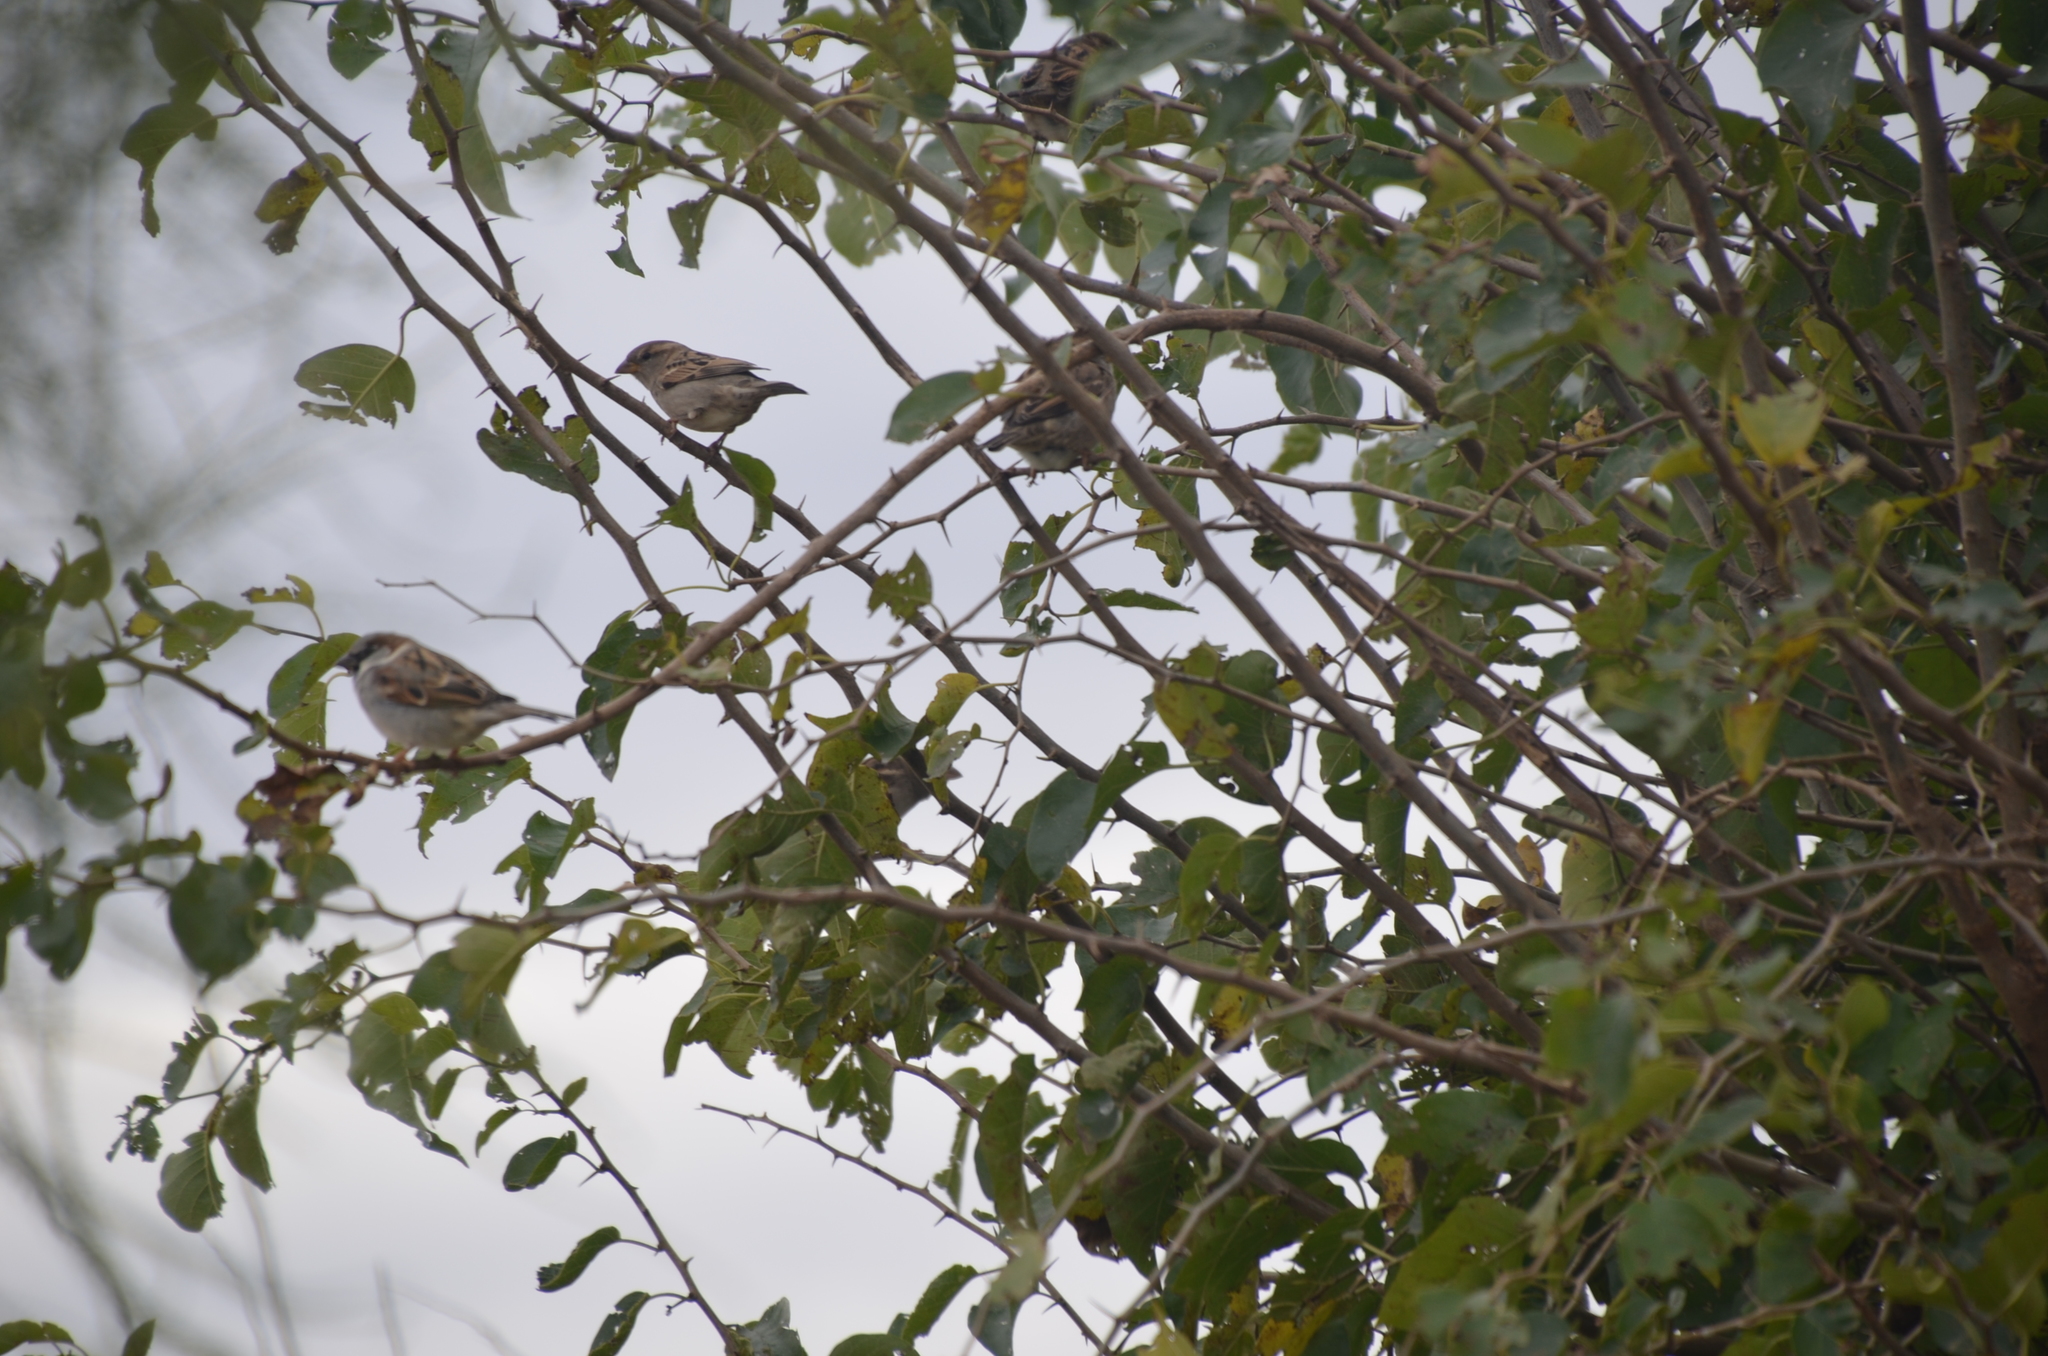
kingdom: Animalia
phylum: Chordata
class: Aves
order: Passeriformes
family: Passeridae
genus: Passer
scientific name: Passer domesticus
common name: House sparrow
